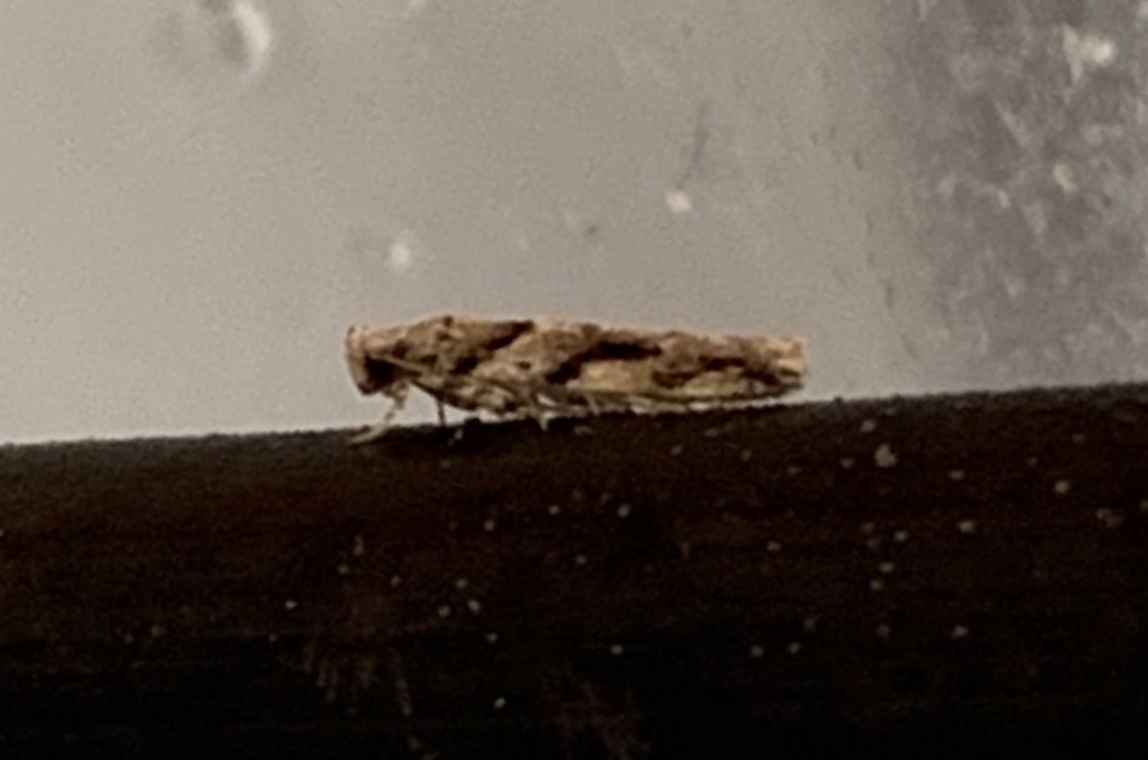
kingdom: Animalia
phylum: Arthropoda
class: Insecta
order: Lepidoptera
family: Gelechiidae
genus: Coleotechnites
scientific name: Coleotechnites australis
